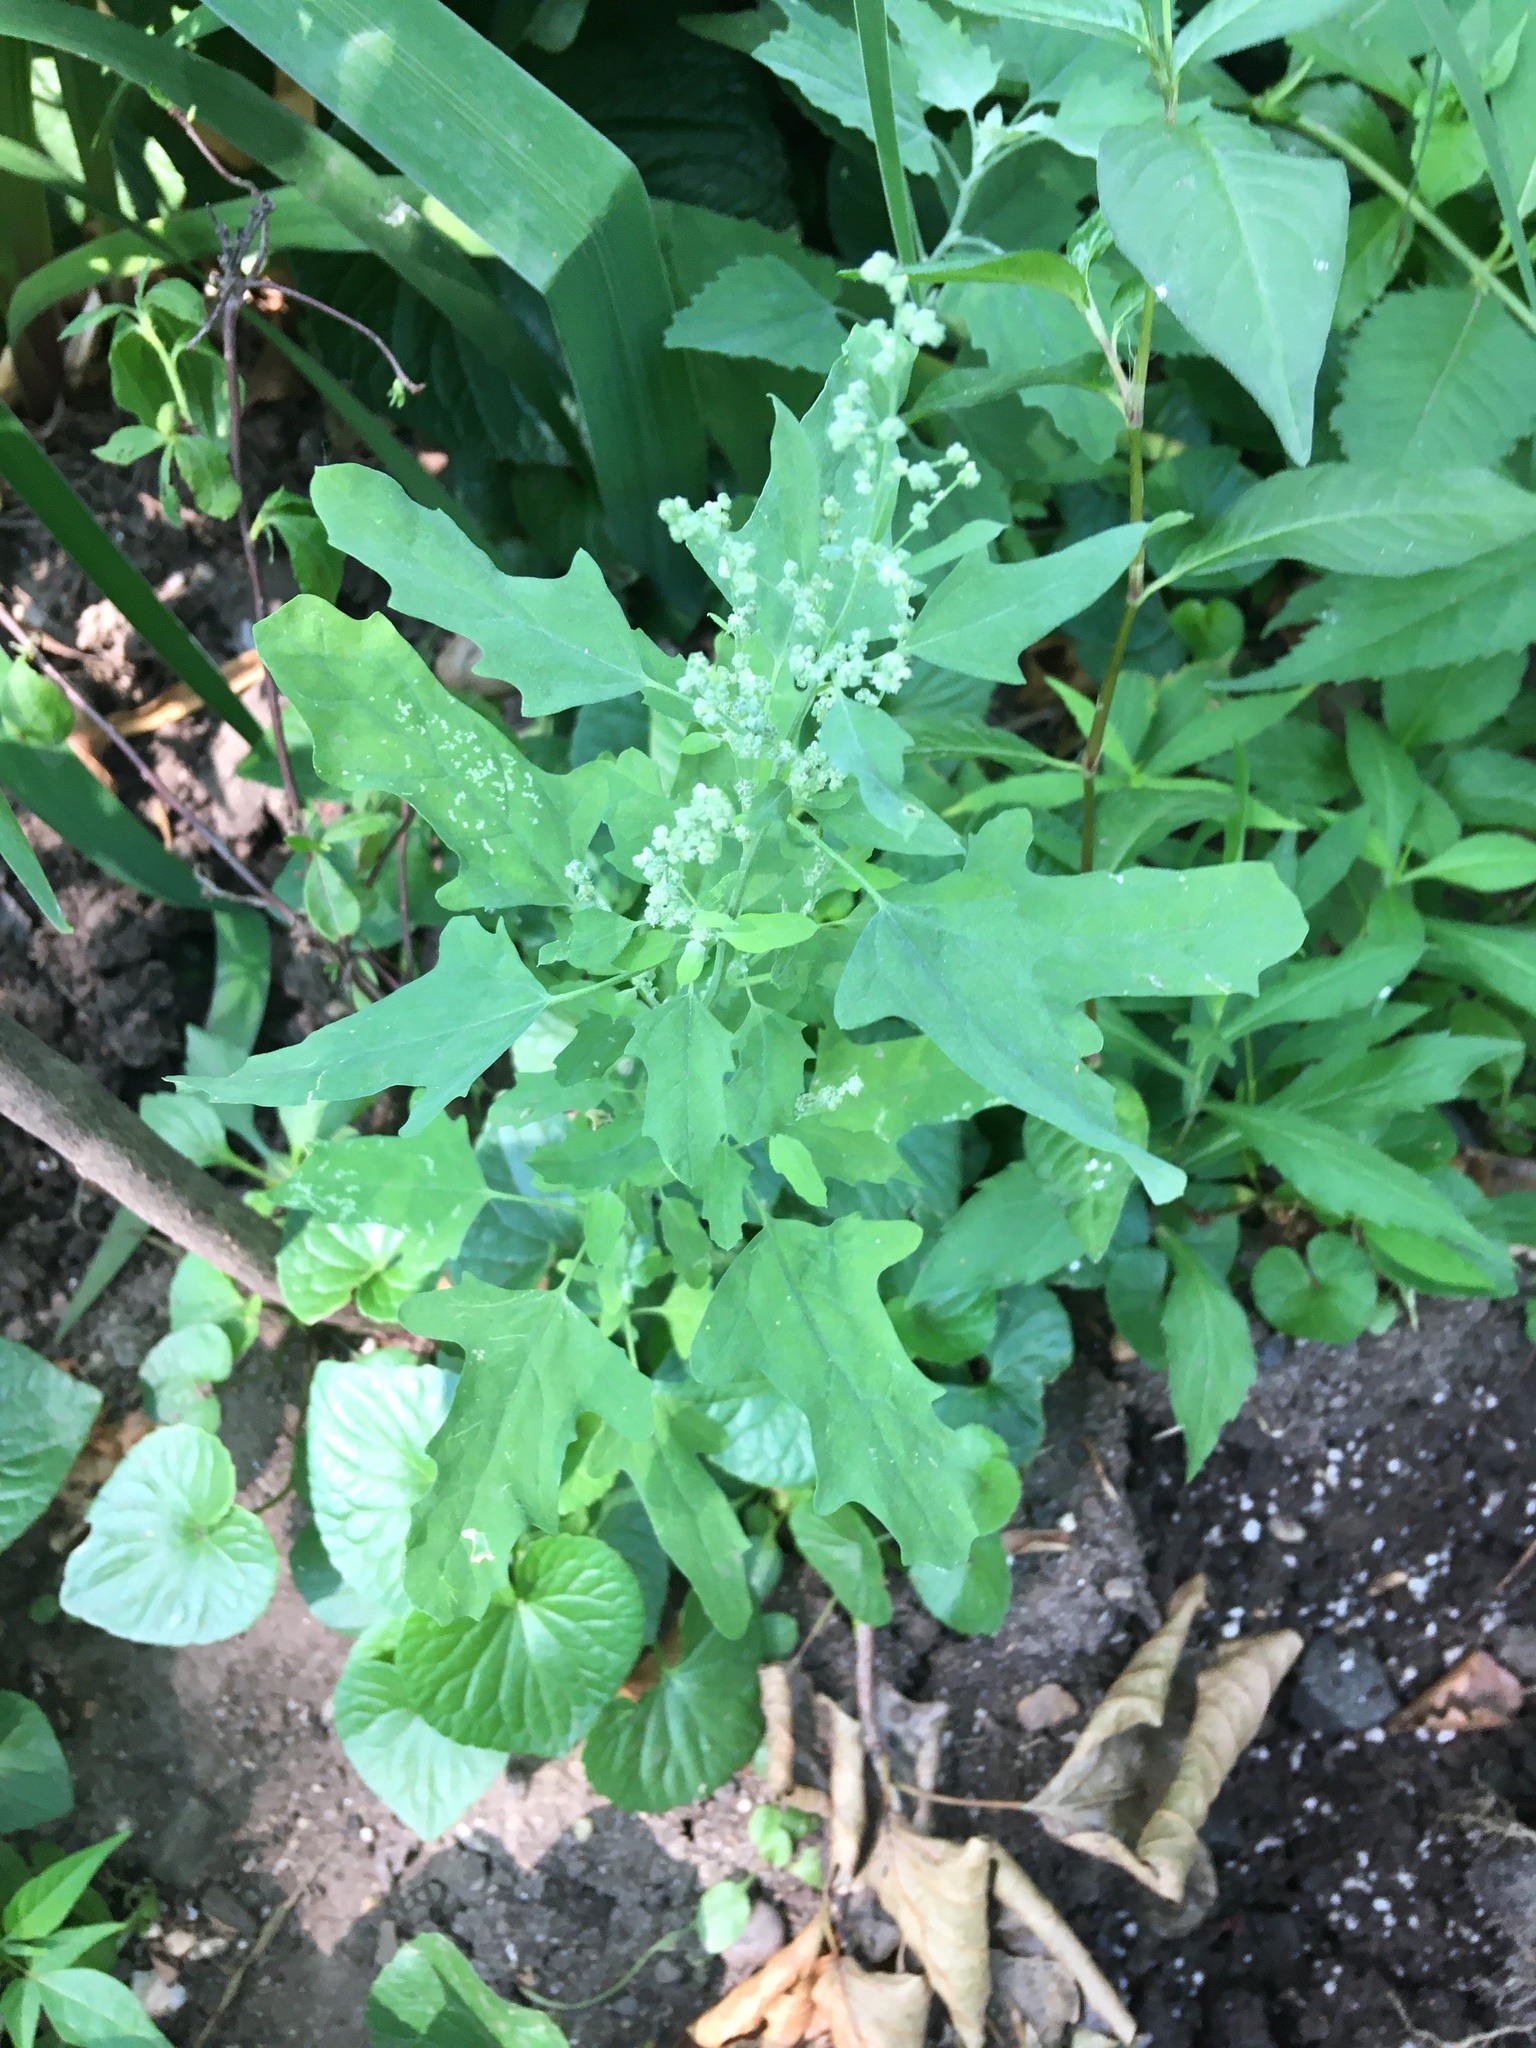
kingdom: Plantae
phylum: Tracheophyta
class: Magnoliopsida
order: Caryophyllales
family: Amaranthaceae
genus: Chenopodium
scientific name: Chenopodium album
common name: Fat-hen
